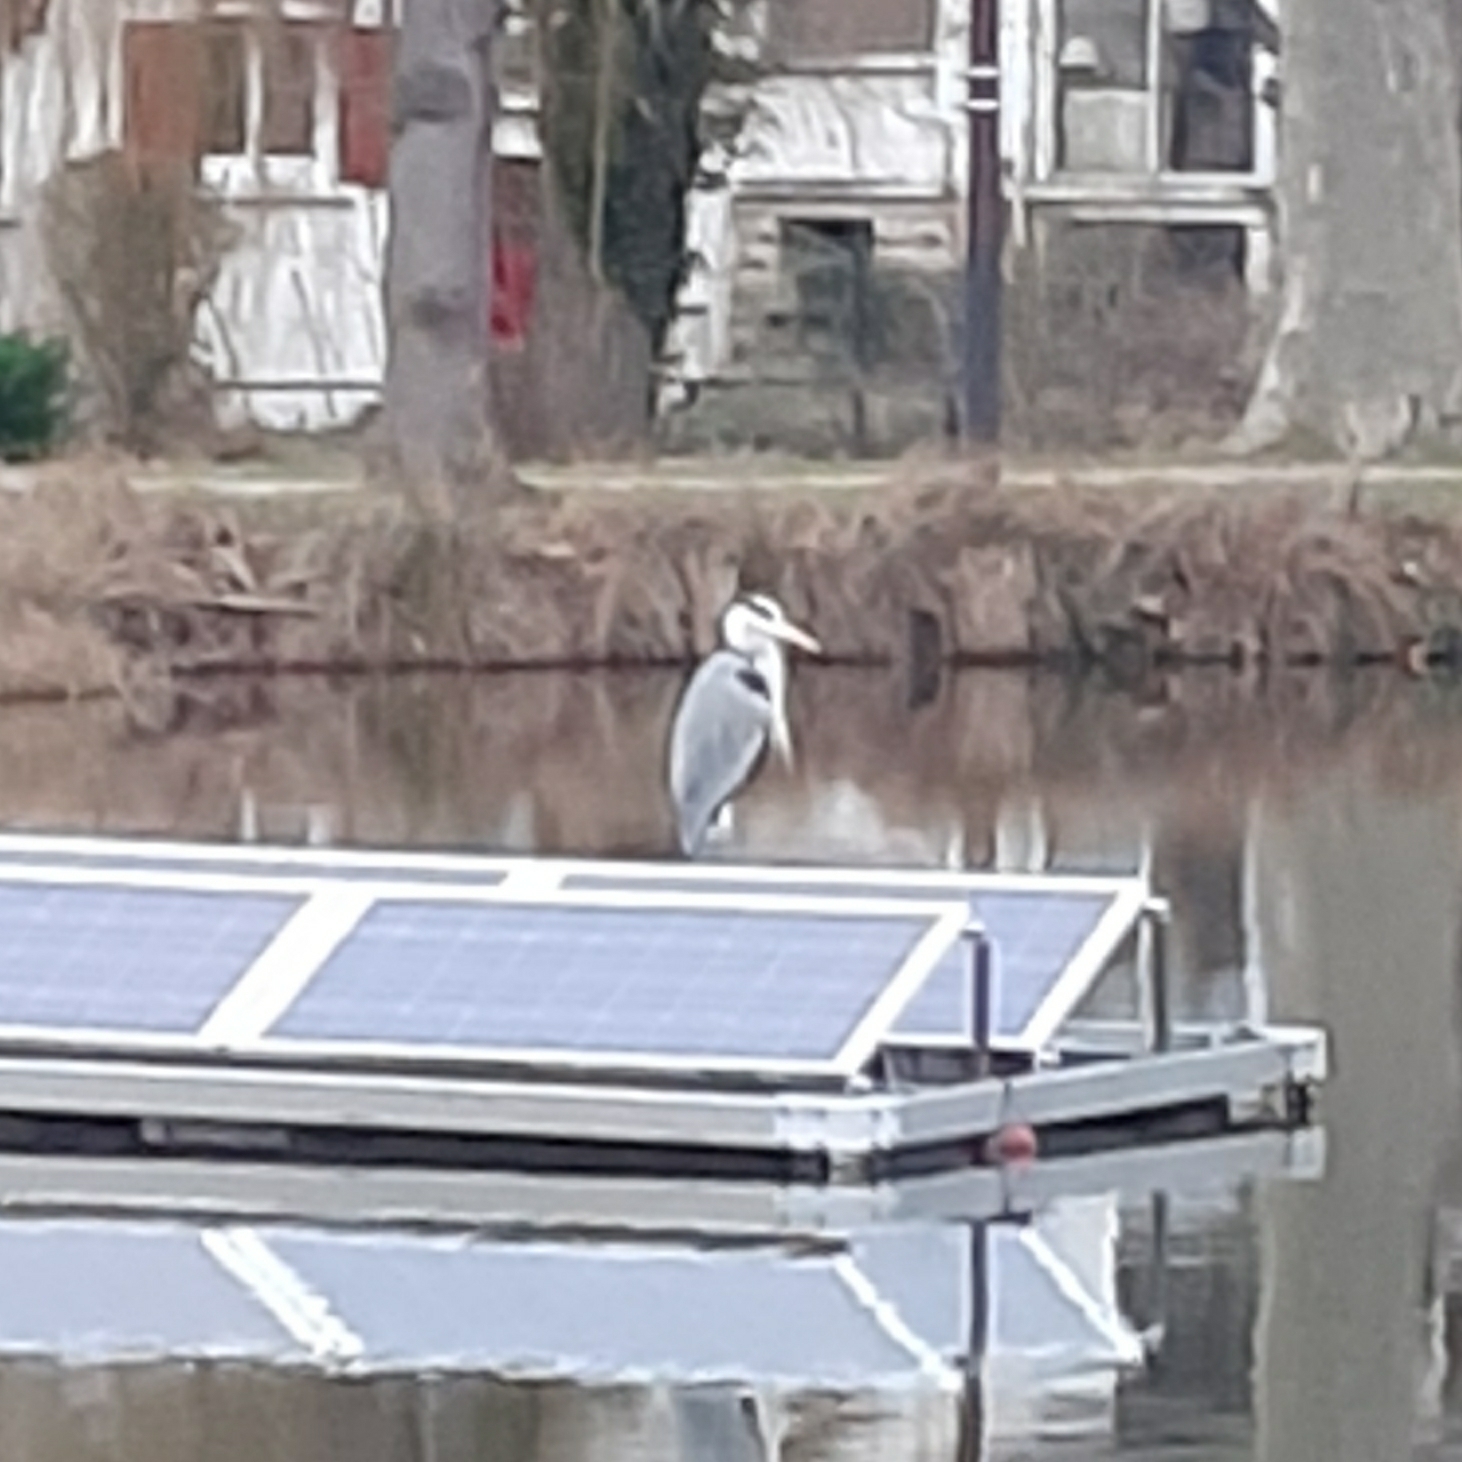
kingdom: Animalia
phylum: Chordata
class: Aves
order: Pelecaniformes
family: Ardeidae
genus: Ardea
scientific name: Ardea cinerea
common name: Grey heron
